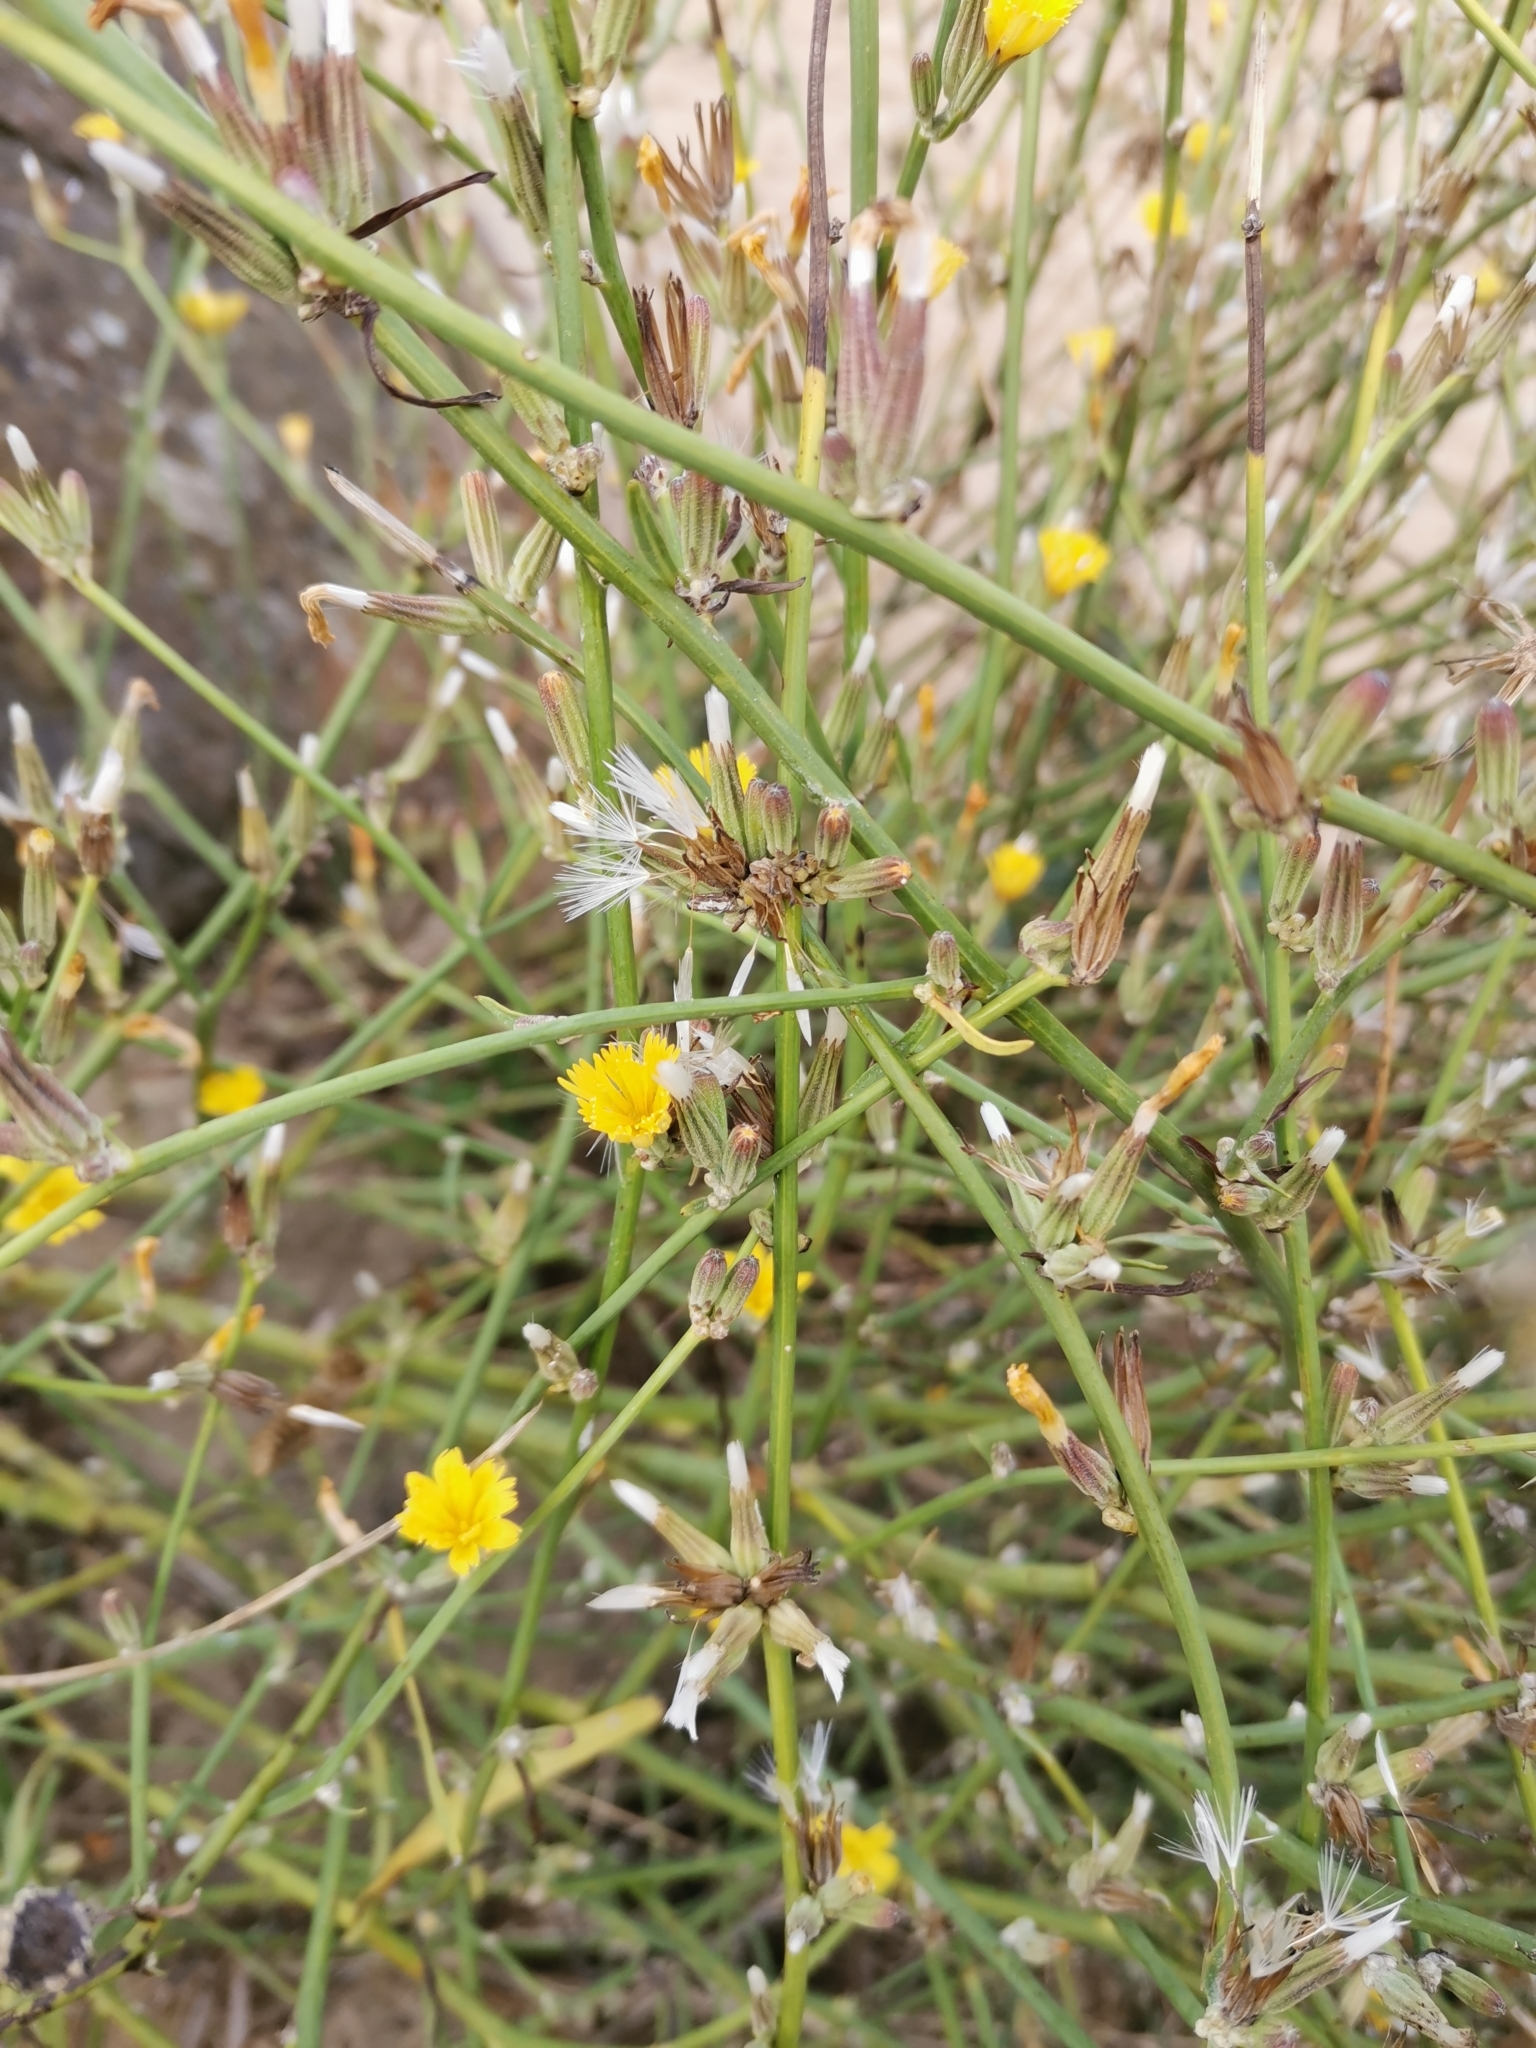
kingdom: Plantae
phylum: Tracheophyta
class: Magnoliopsida
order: Asterales
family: Asteraceae
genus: Chondrilla
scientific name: Chondrilla juncea
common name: Skeleton weed
